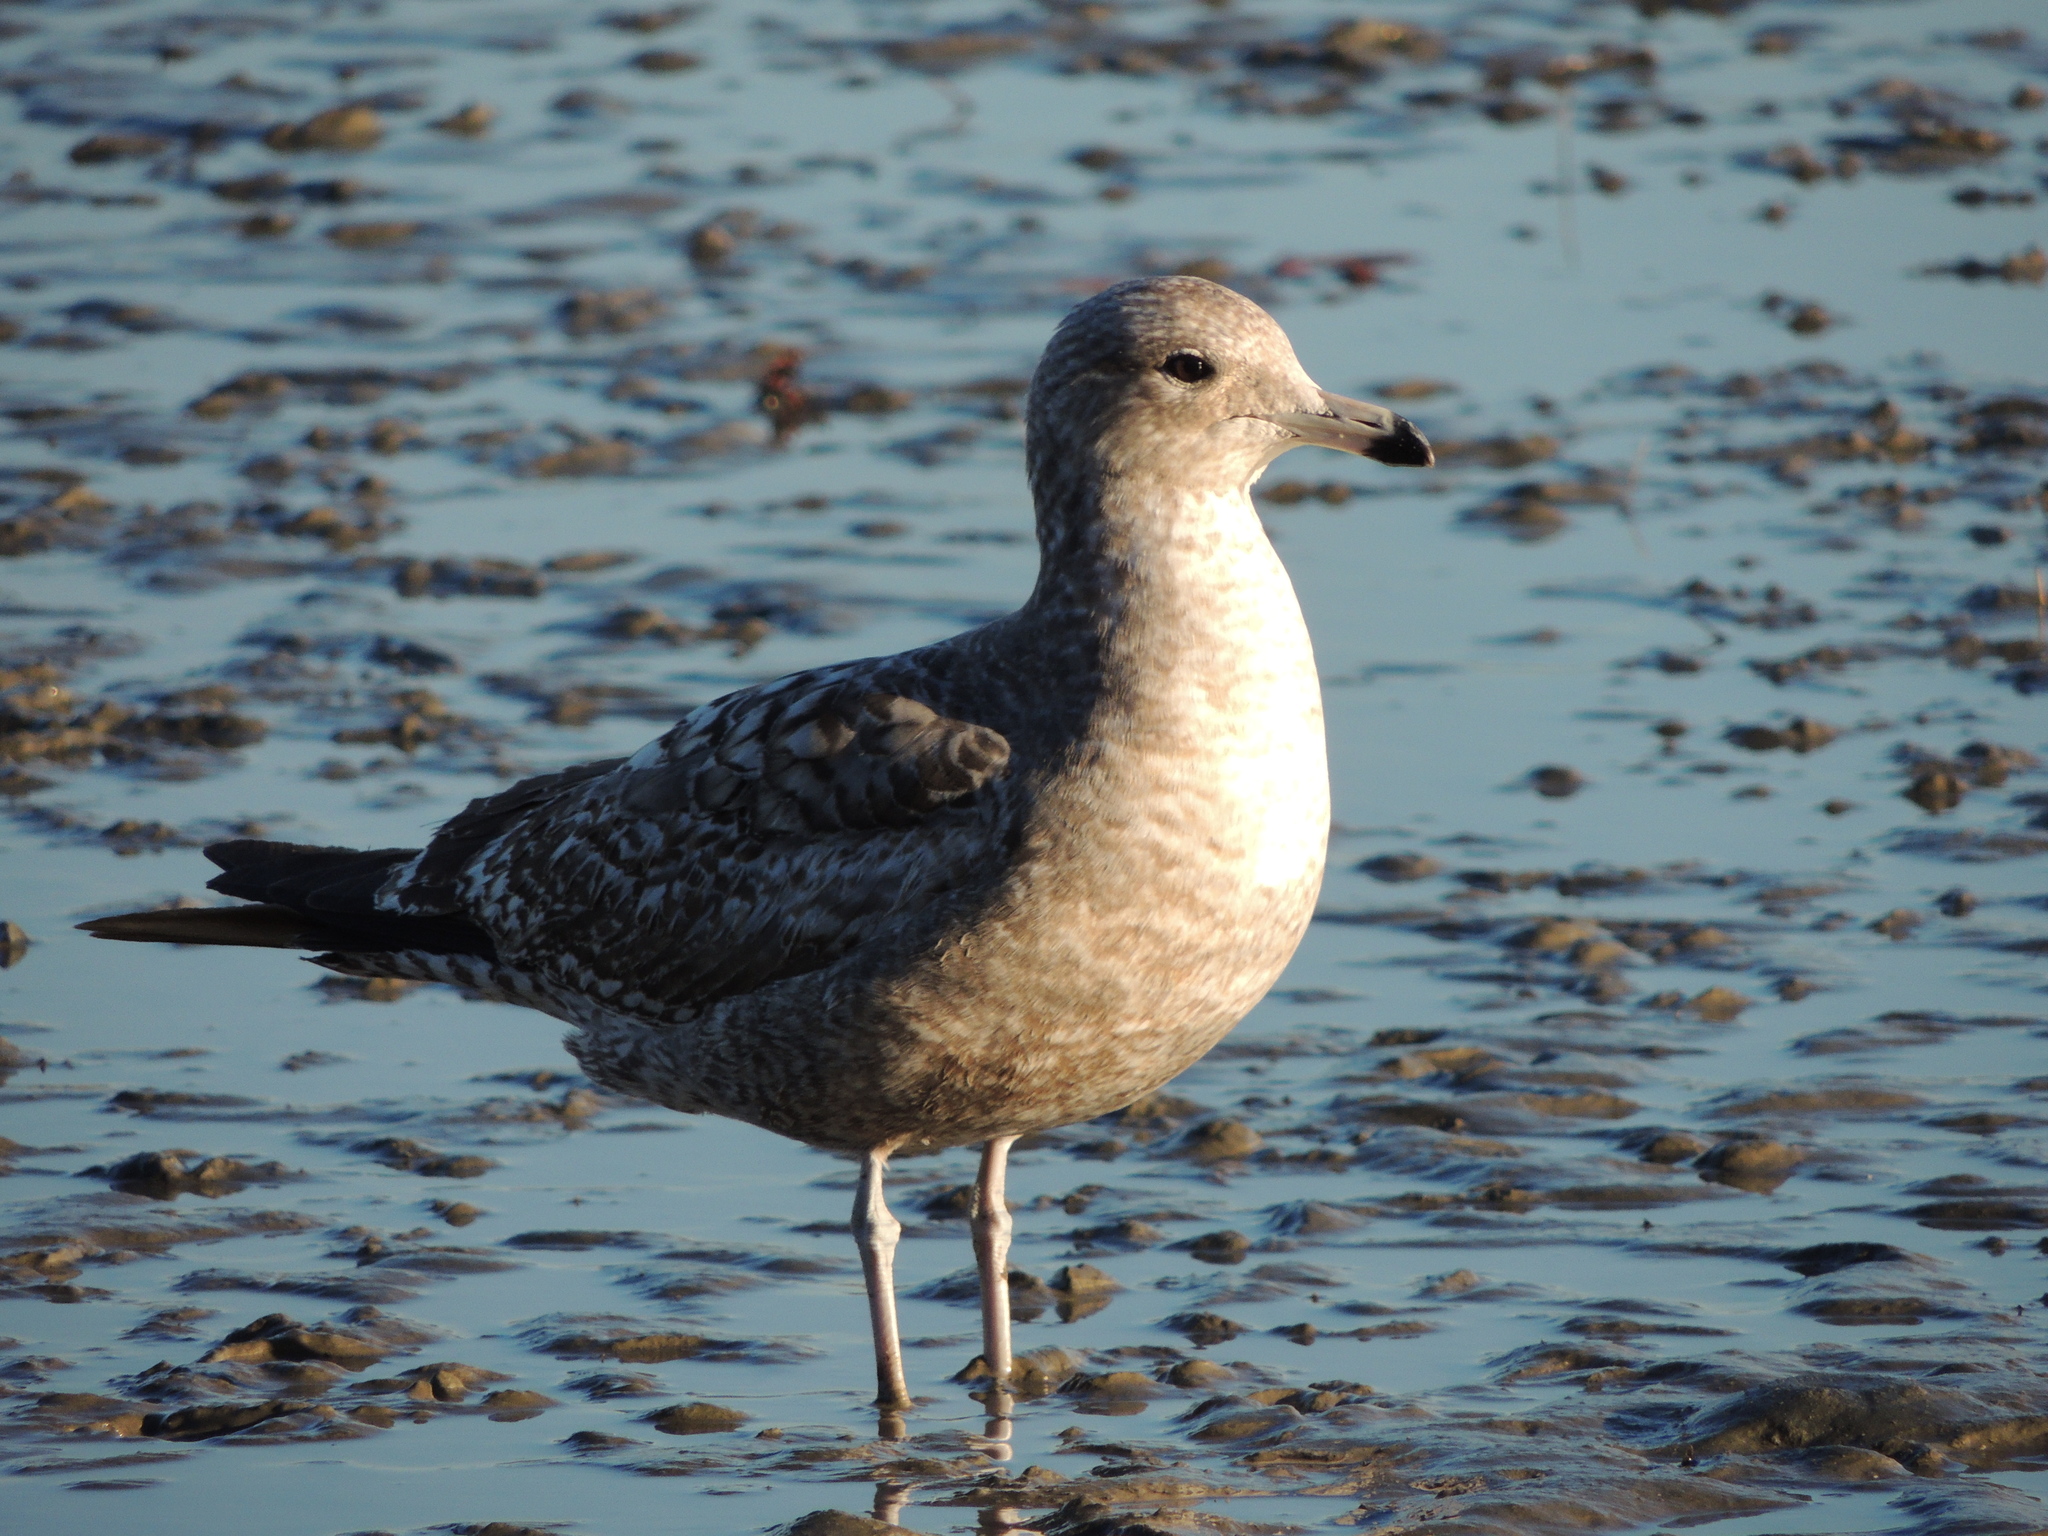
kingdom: Animalia
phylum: Chordata
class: Aves
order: Charadriiformes
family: Laridae
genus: Larus
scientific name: Larus californicus
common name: California gull
